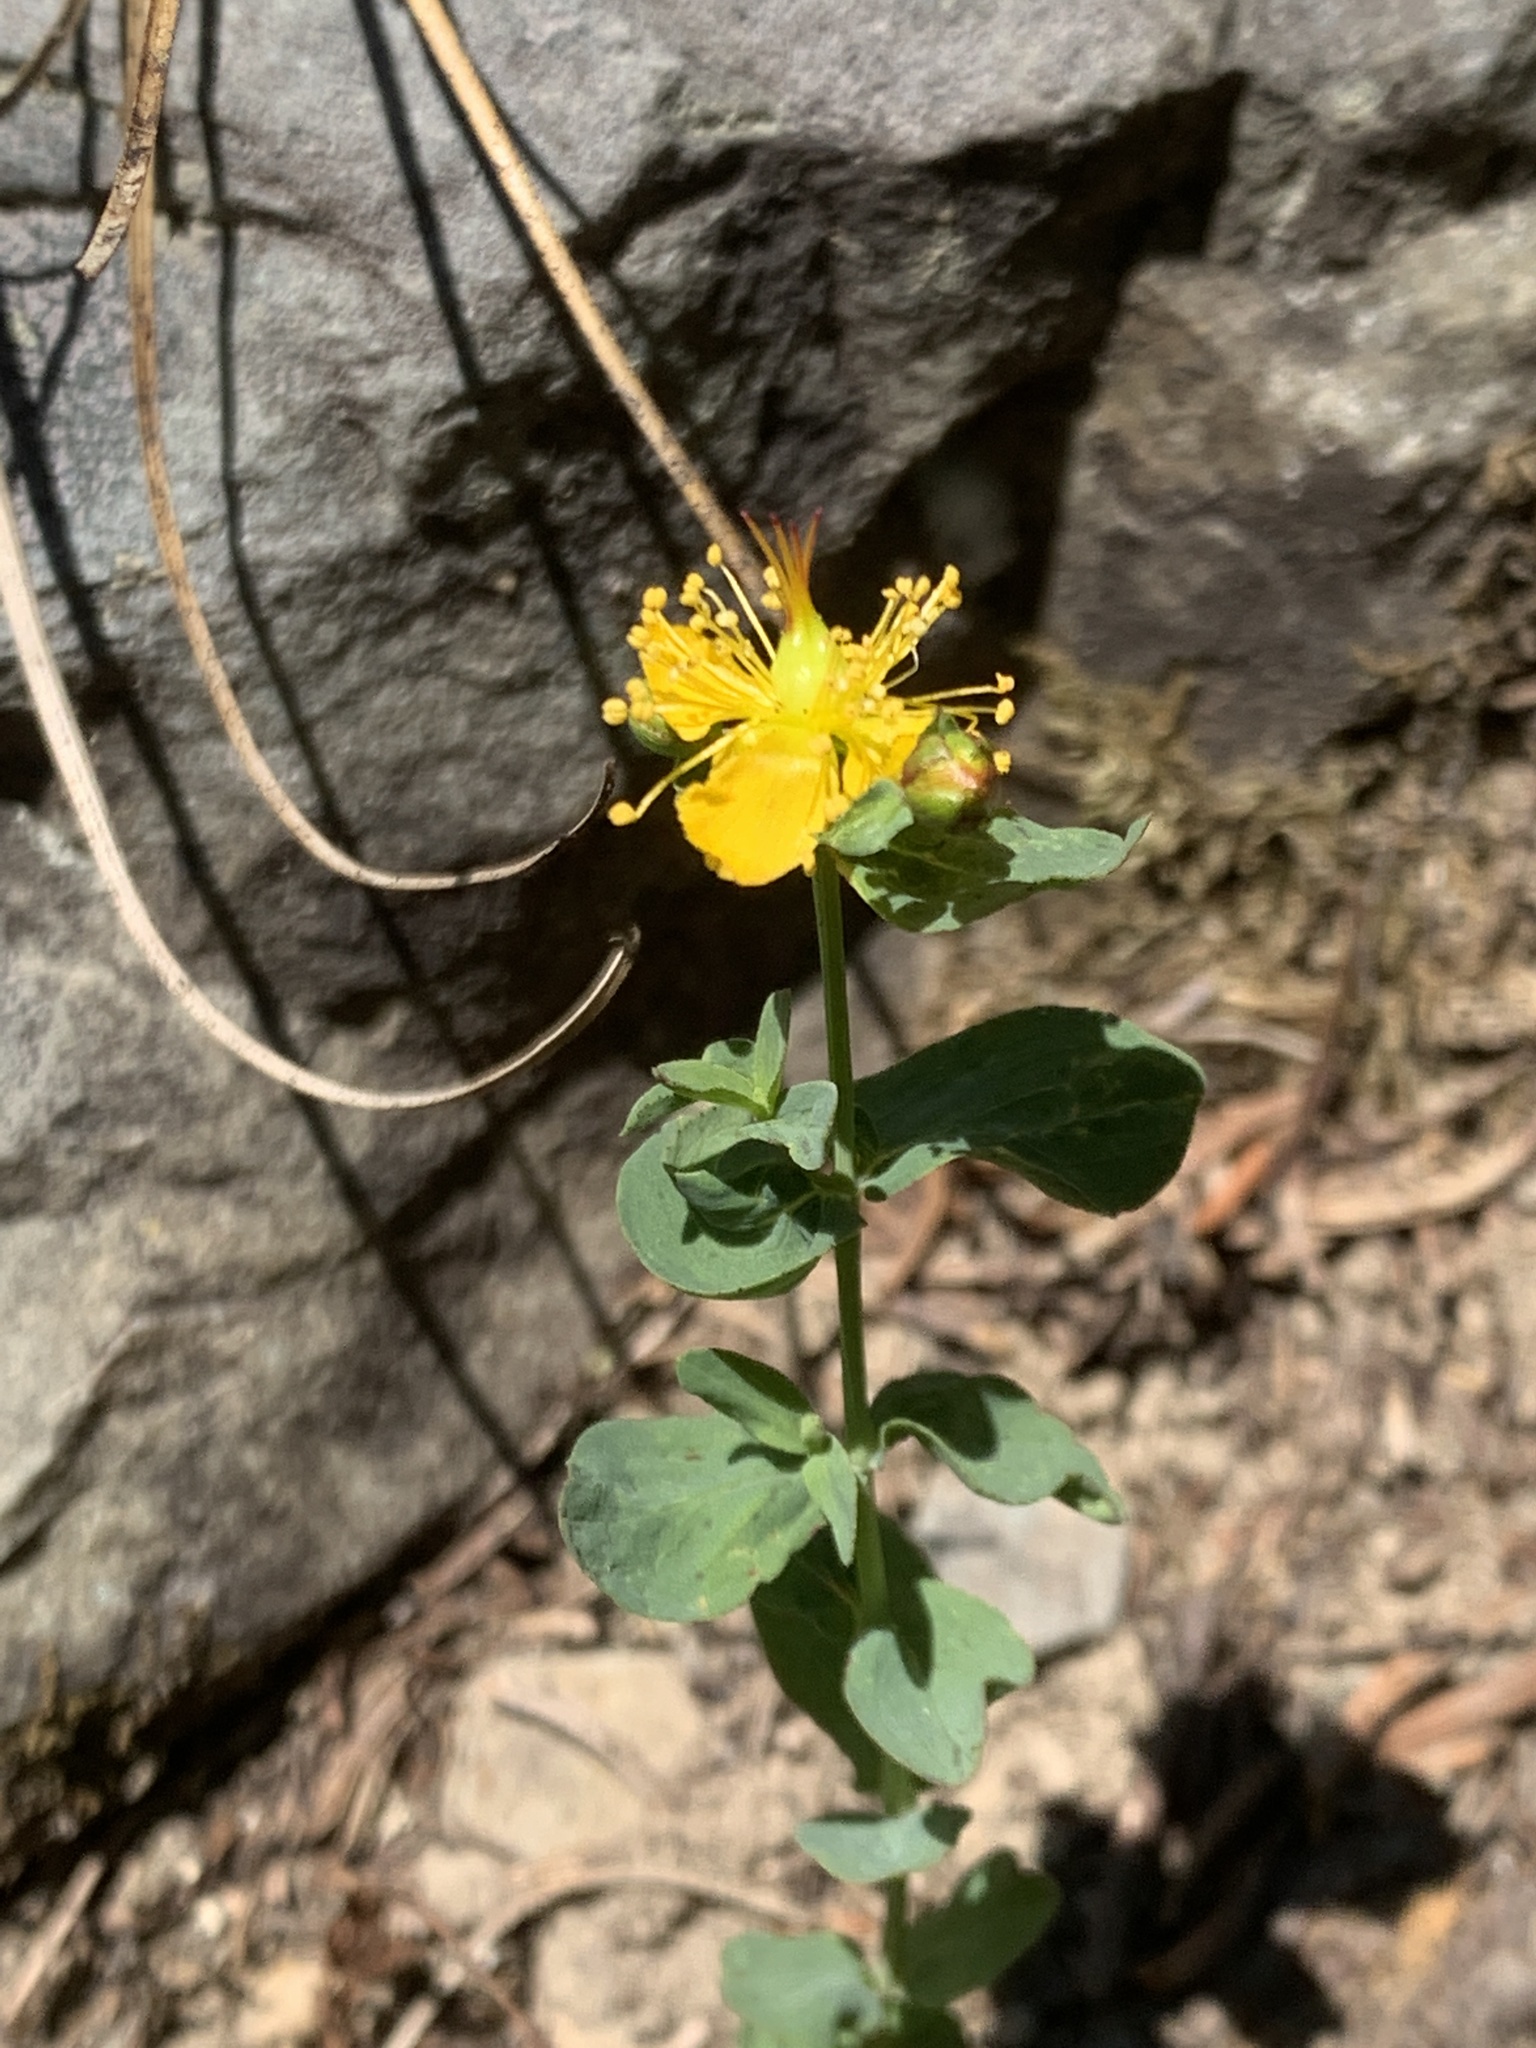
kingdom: Plantae
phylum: Tracheophyta
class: Magnoliopsida
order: Malpighiales
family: Hypericaceae
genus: Hypericum
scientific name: Hypericum scouleri
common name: Scouler's st. john's-wort
